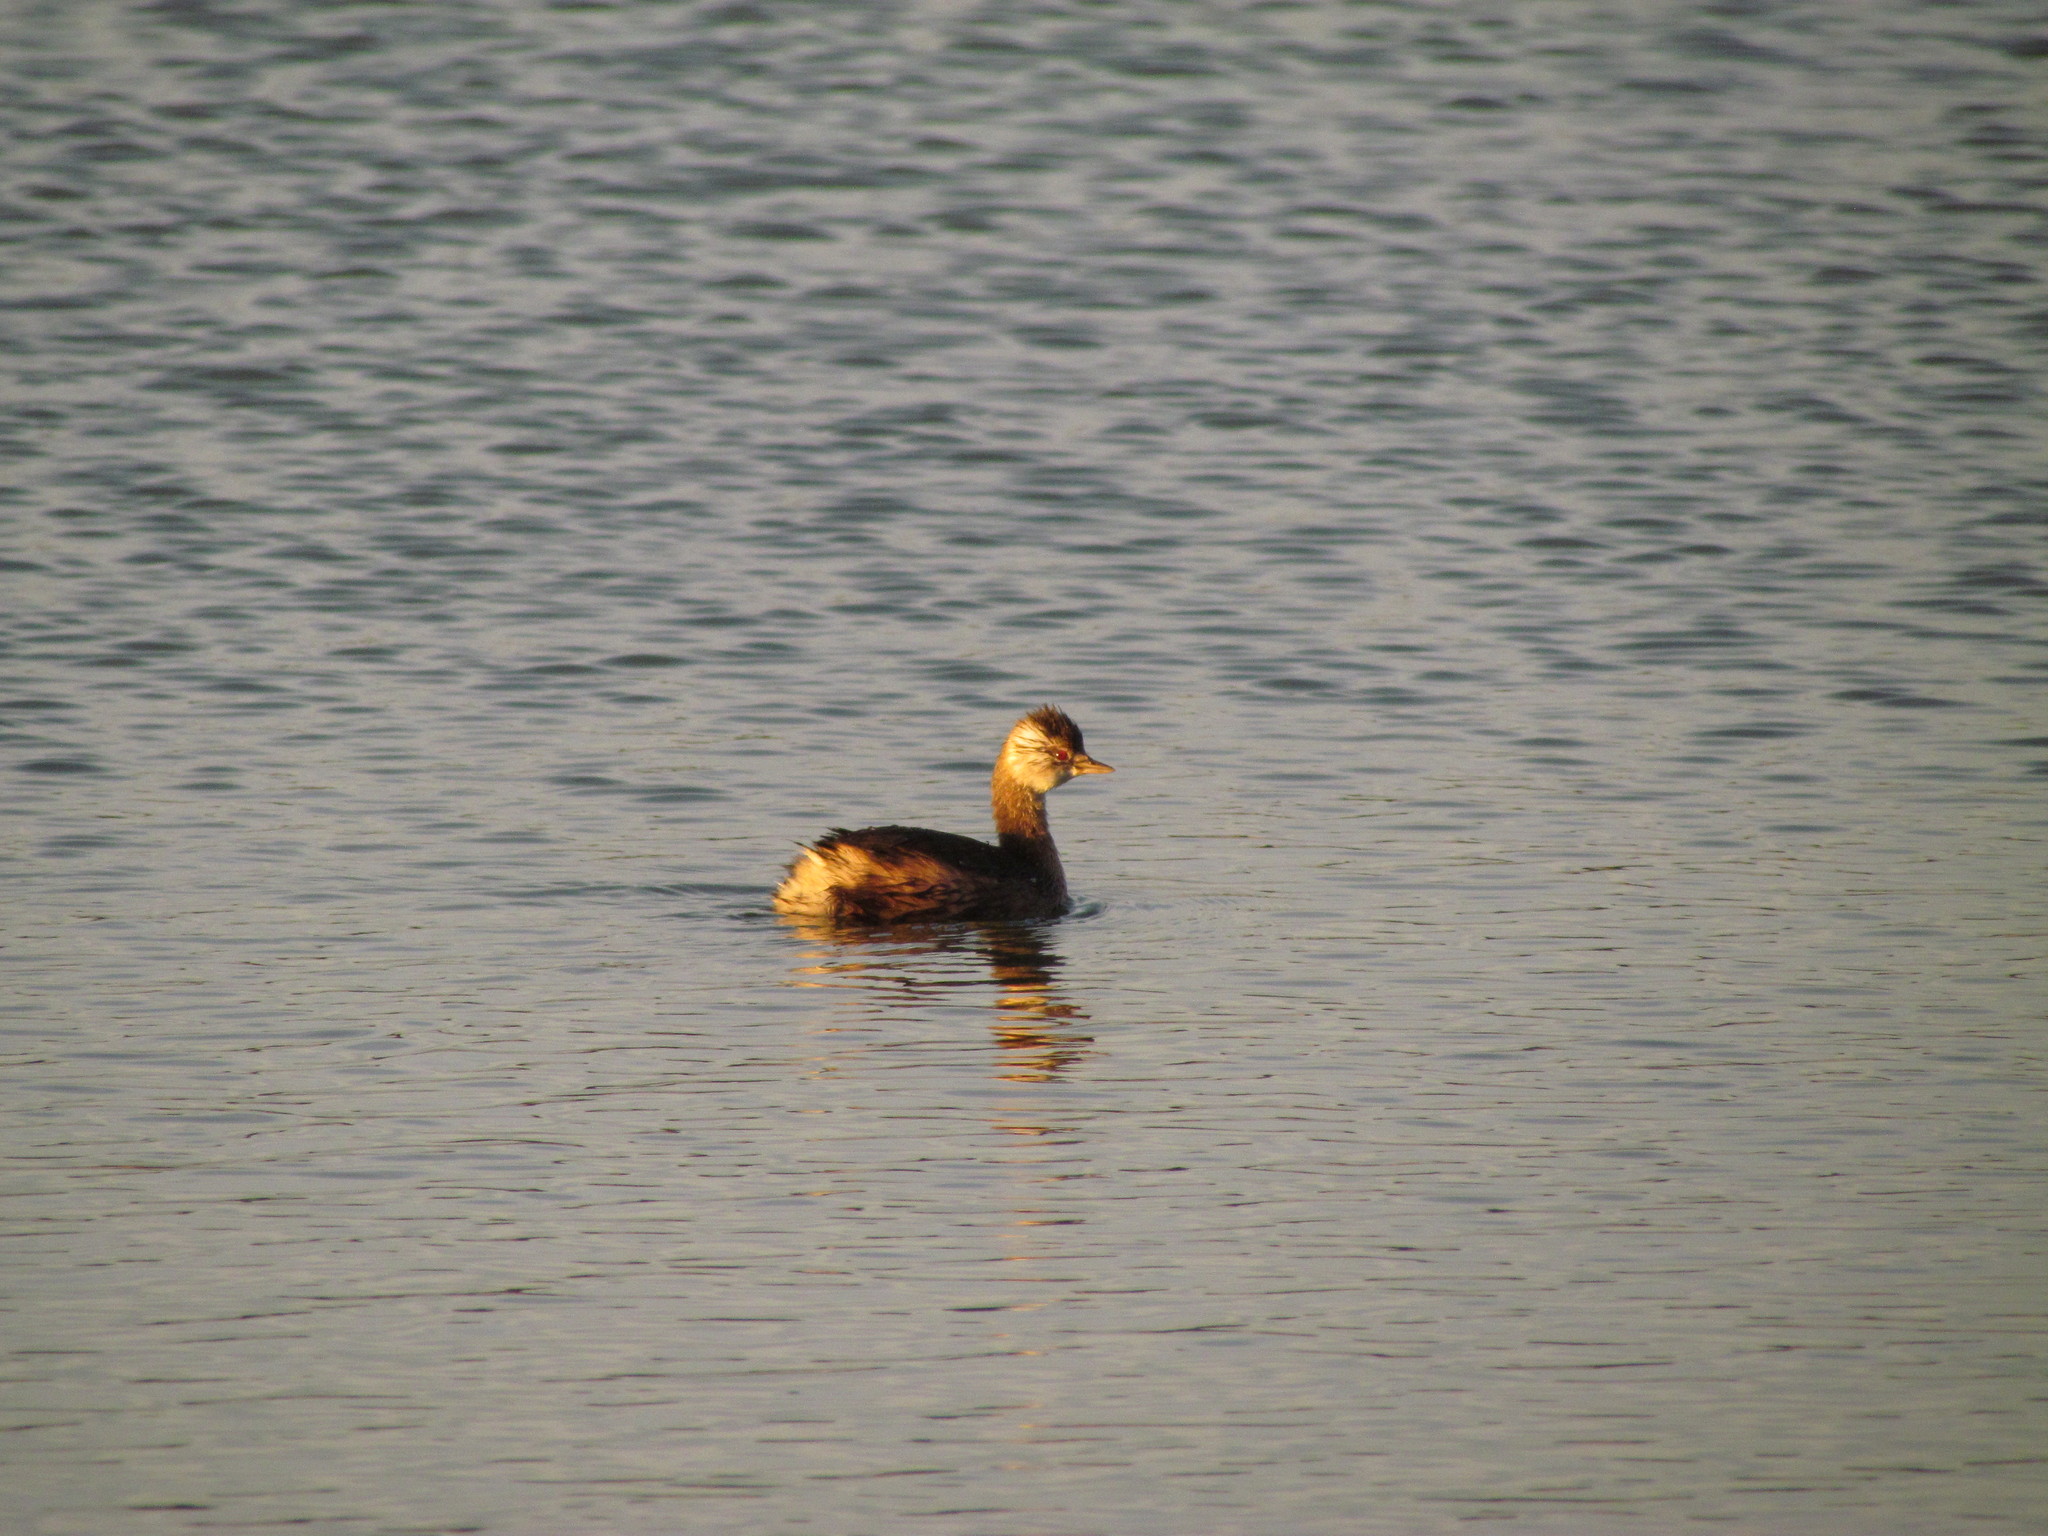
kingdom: Animalia
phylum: Chordata
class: Aves
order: Podicipediformes
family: Podicipedidae
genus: Rollandia
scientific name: Rollandia rolland
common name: White-tufted grebe
